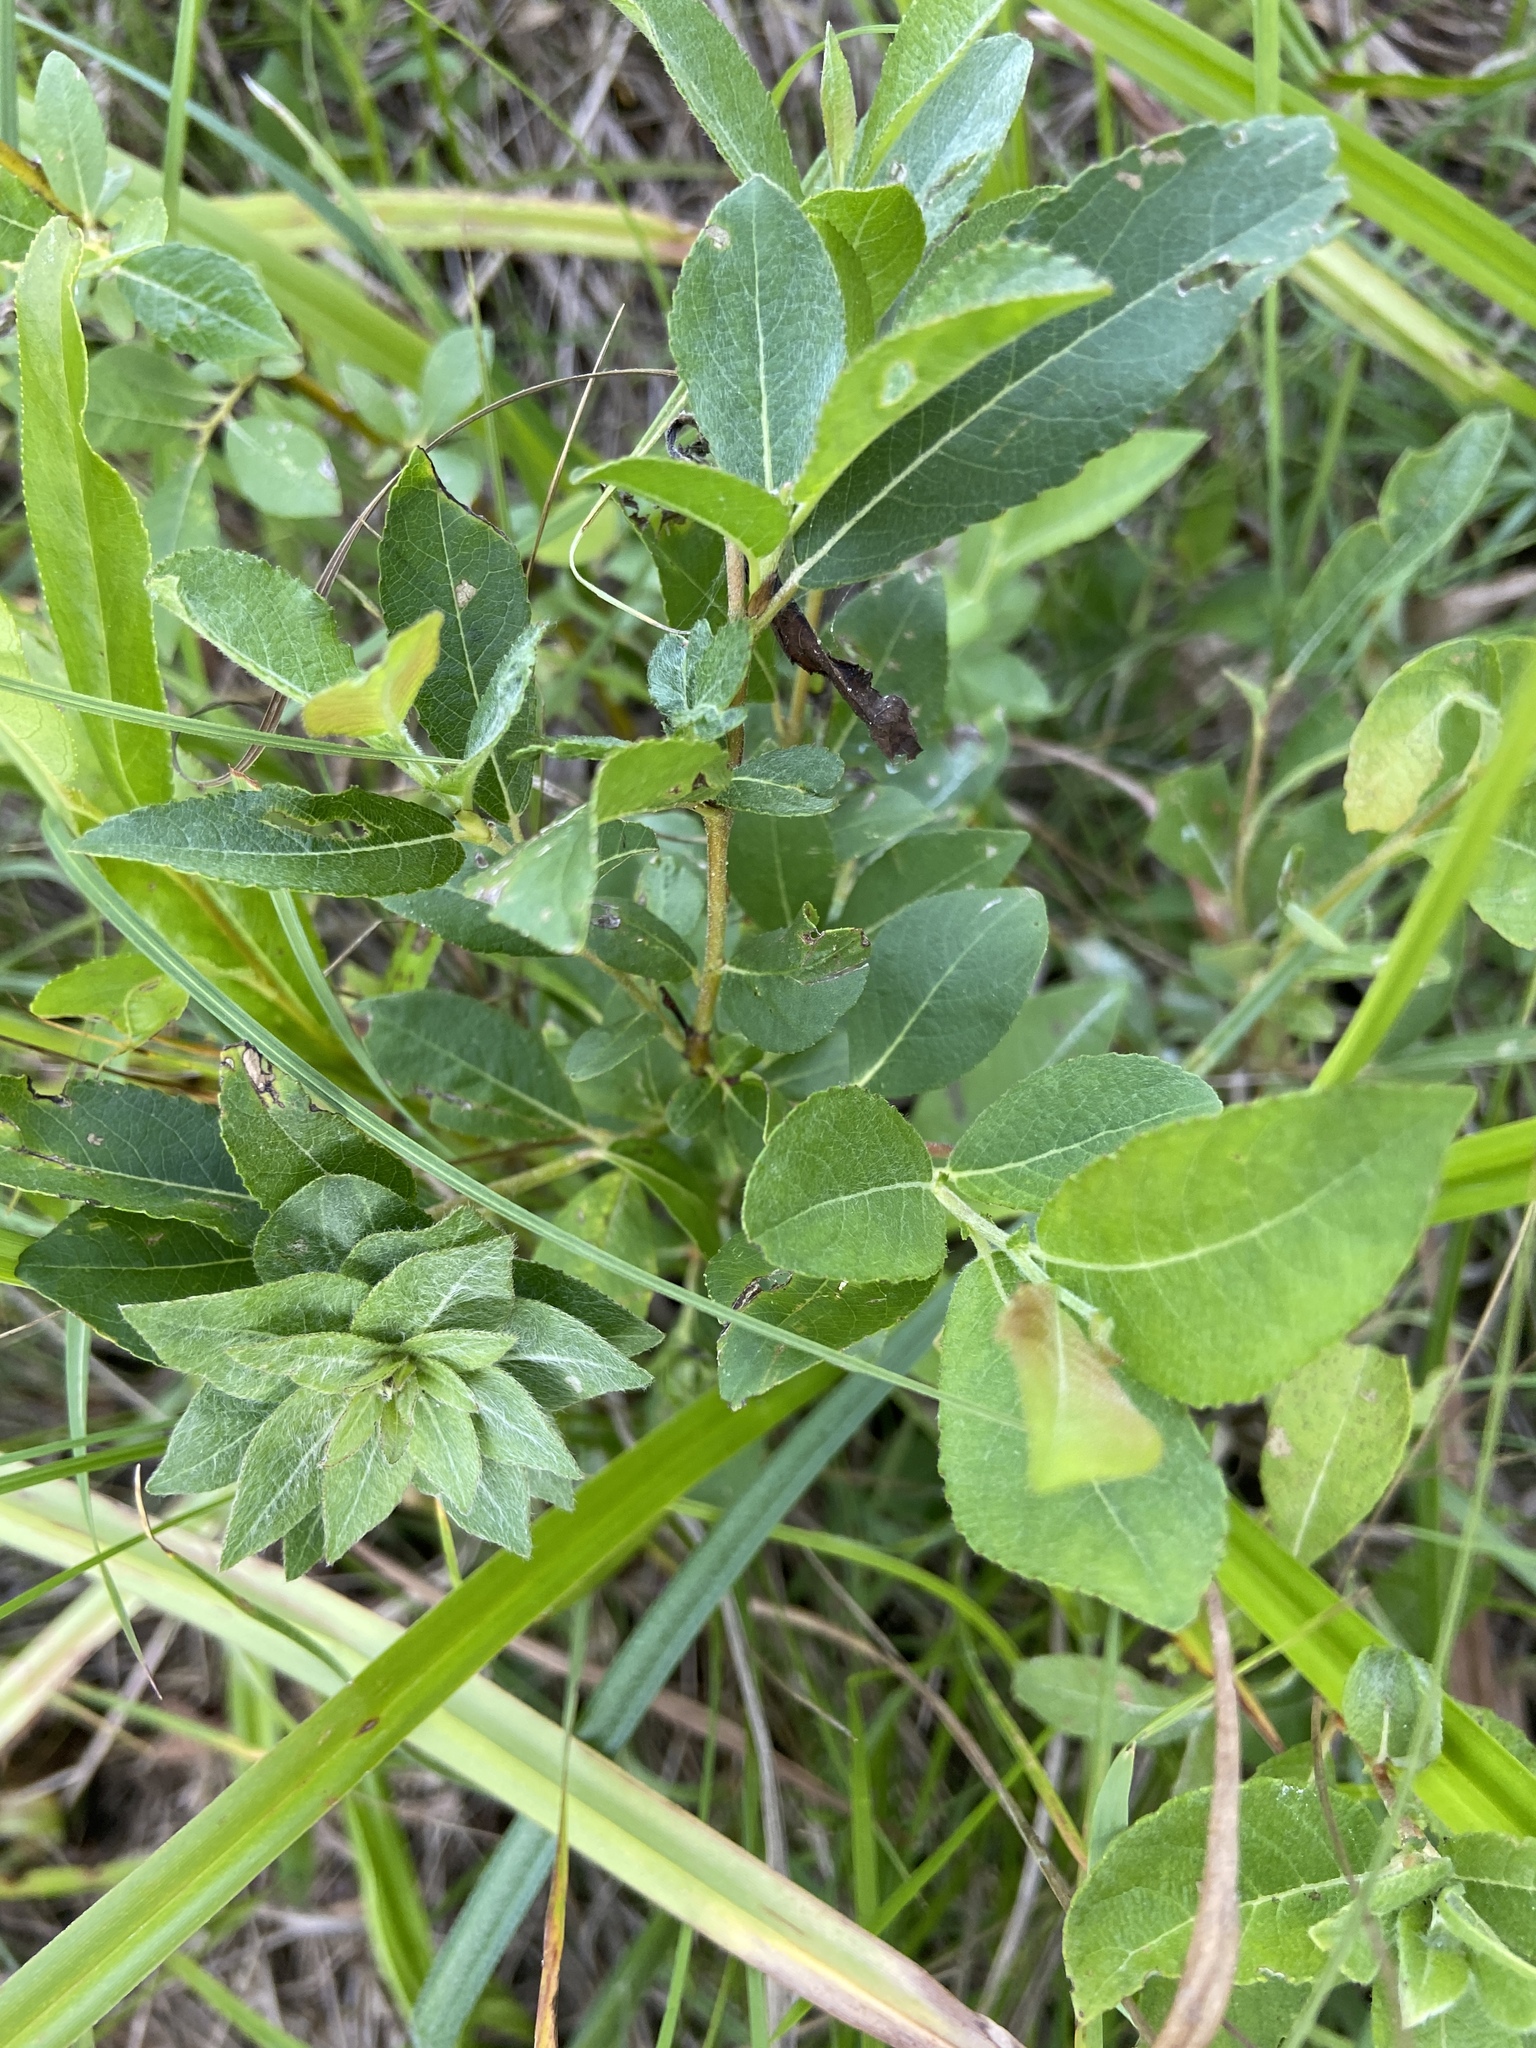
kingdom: Plantae
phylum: Tracheophyta
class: Magnoliopsida
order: Malpighiales
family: Salicaceae
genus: Salix
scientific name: Salix myrsinifolia
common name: Dark-leaved willow
